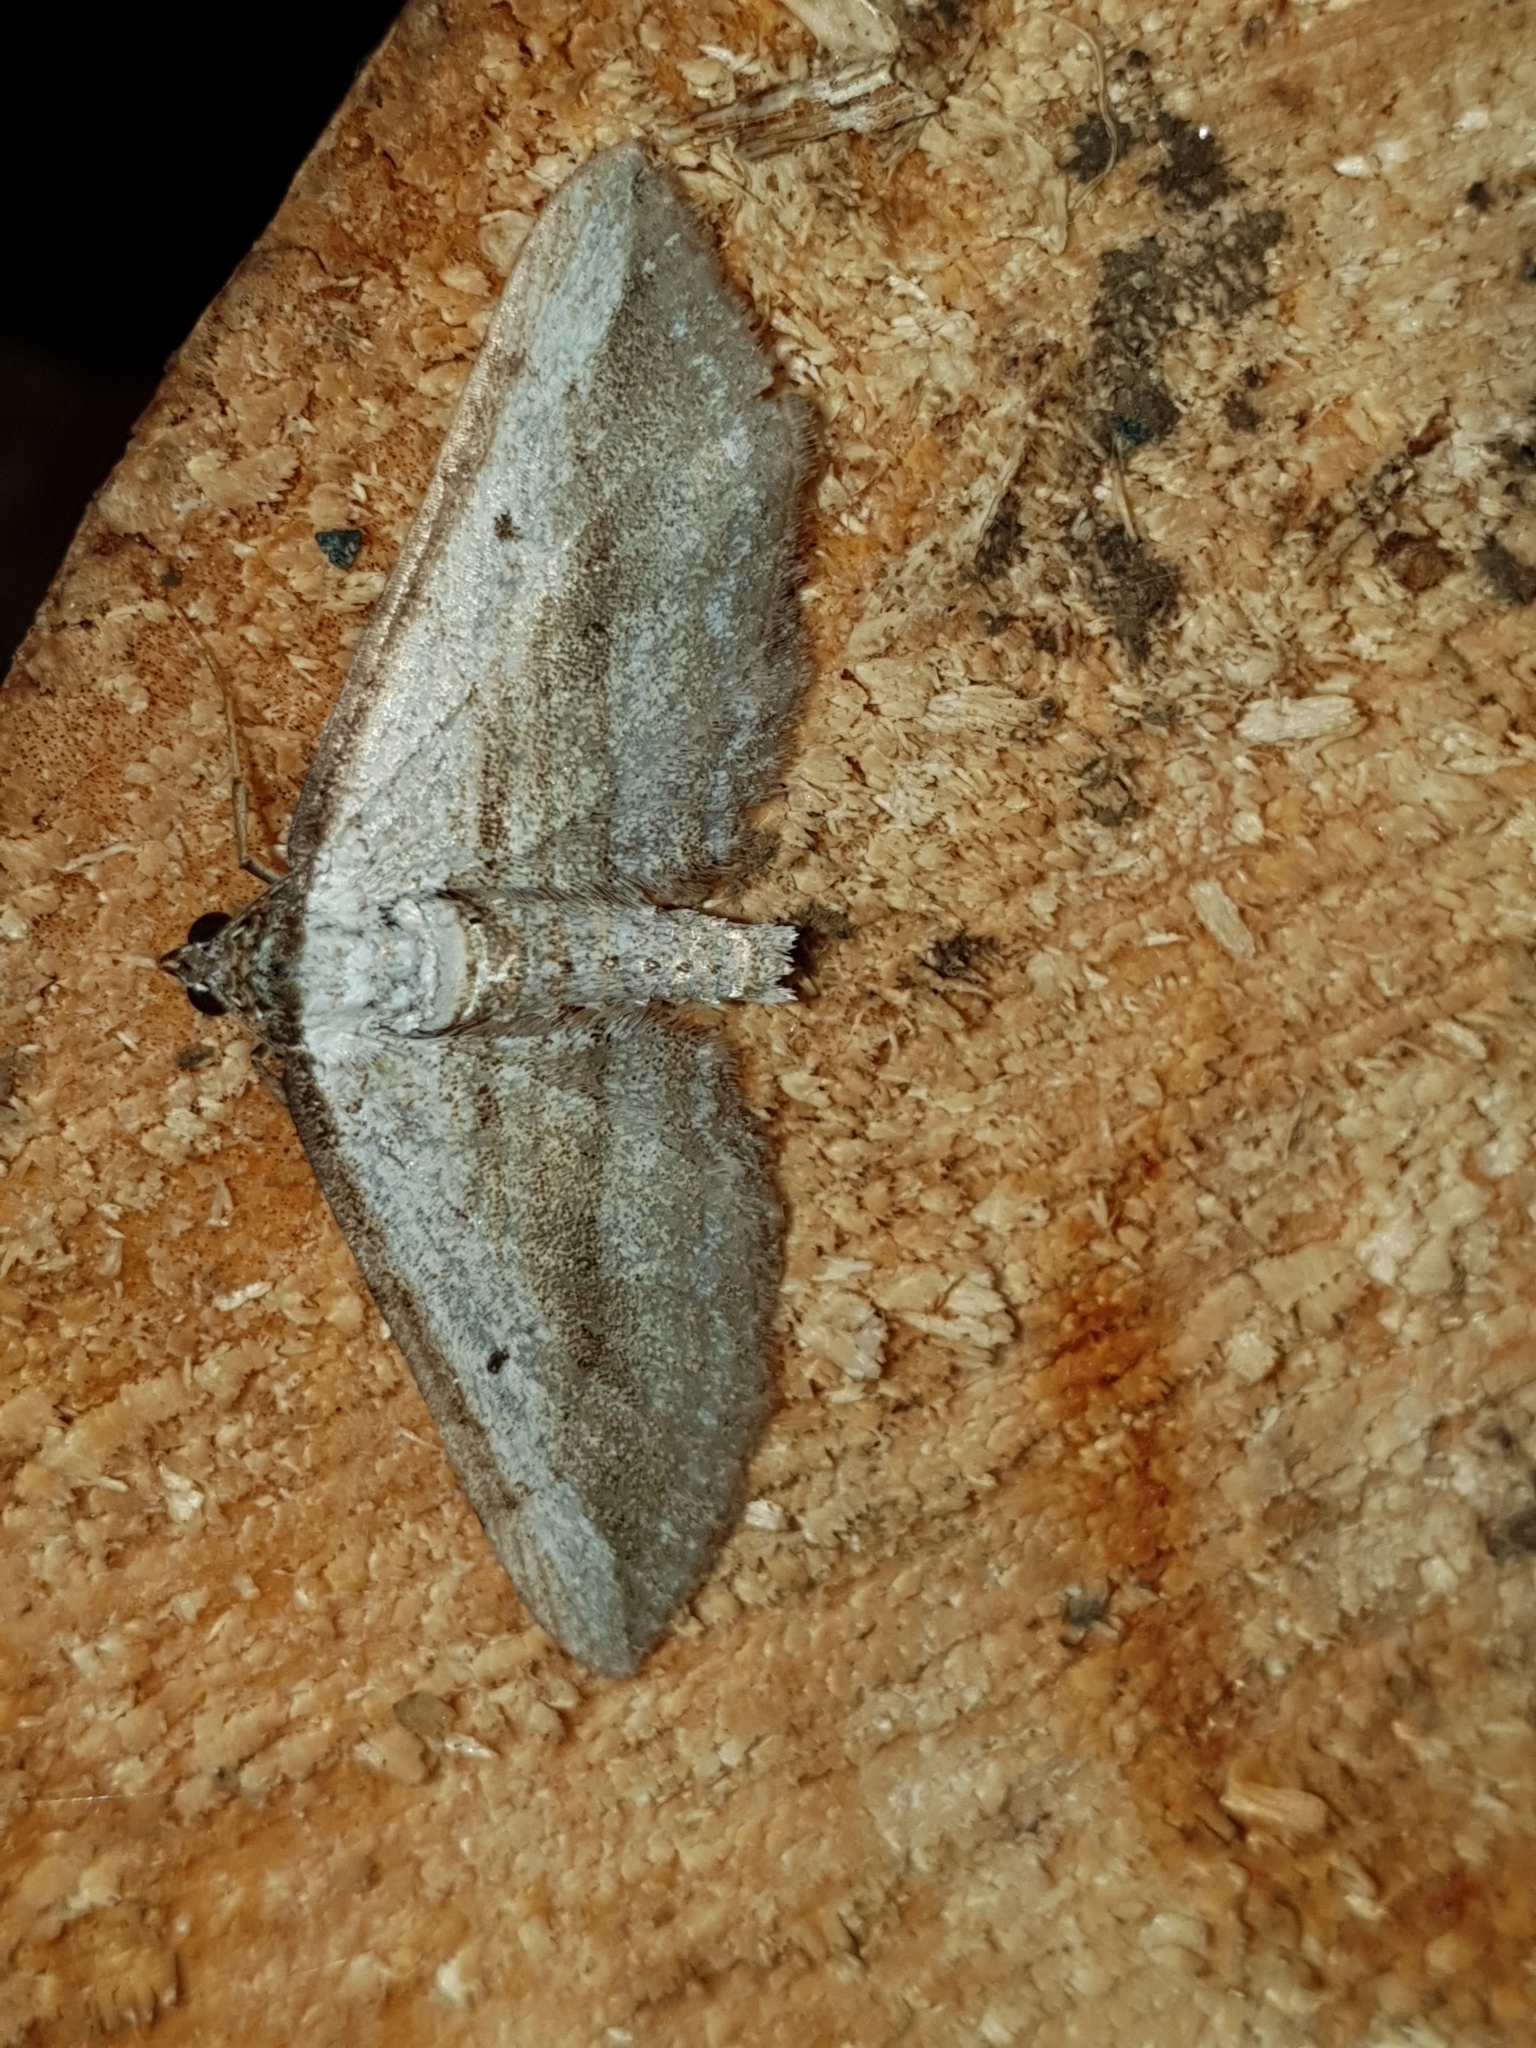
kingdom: Animalia
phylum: Arthropoda
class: Insecta
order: Lepidoptera
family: Geometridae
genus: Horisme
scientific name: Horisme aquata
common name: Cumbrian umber
